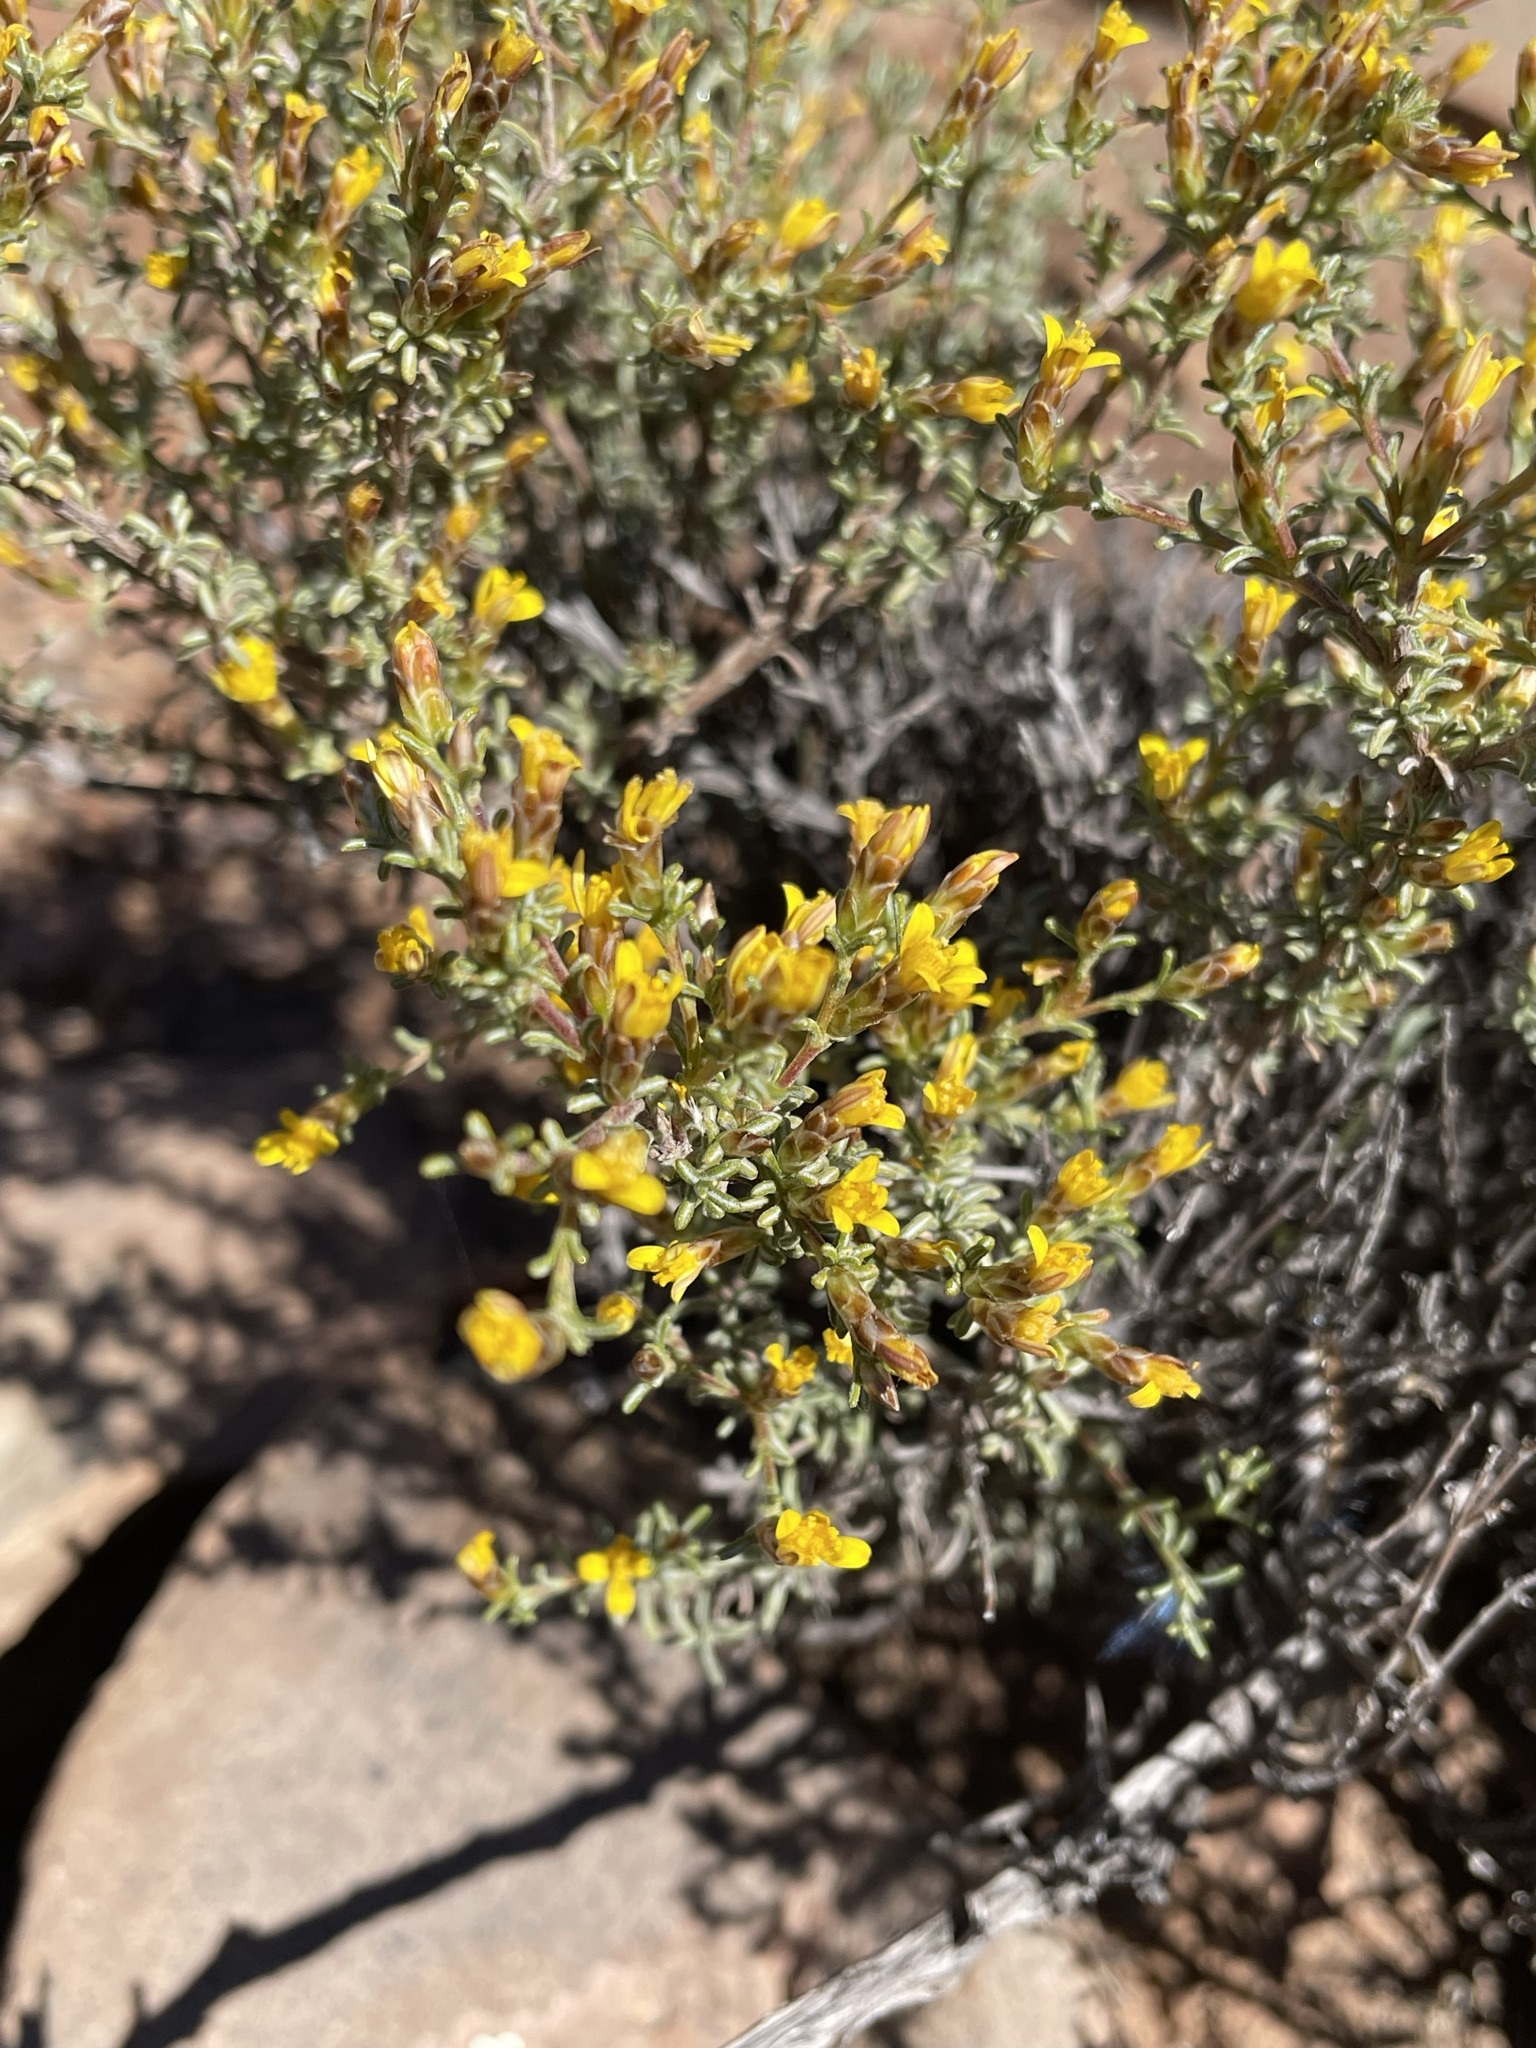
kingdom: Plantae
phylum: Tracheophyta
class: Magnoliopsida
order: Asterales
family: Asteraceae
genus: Oedera
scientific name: Oedera humilis
